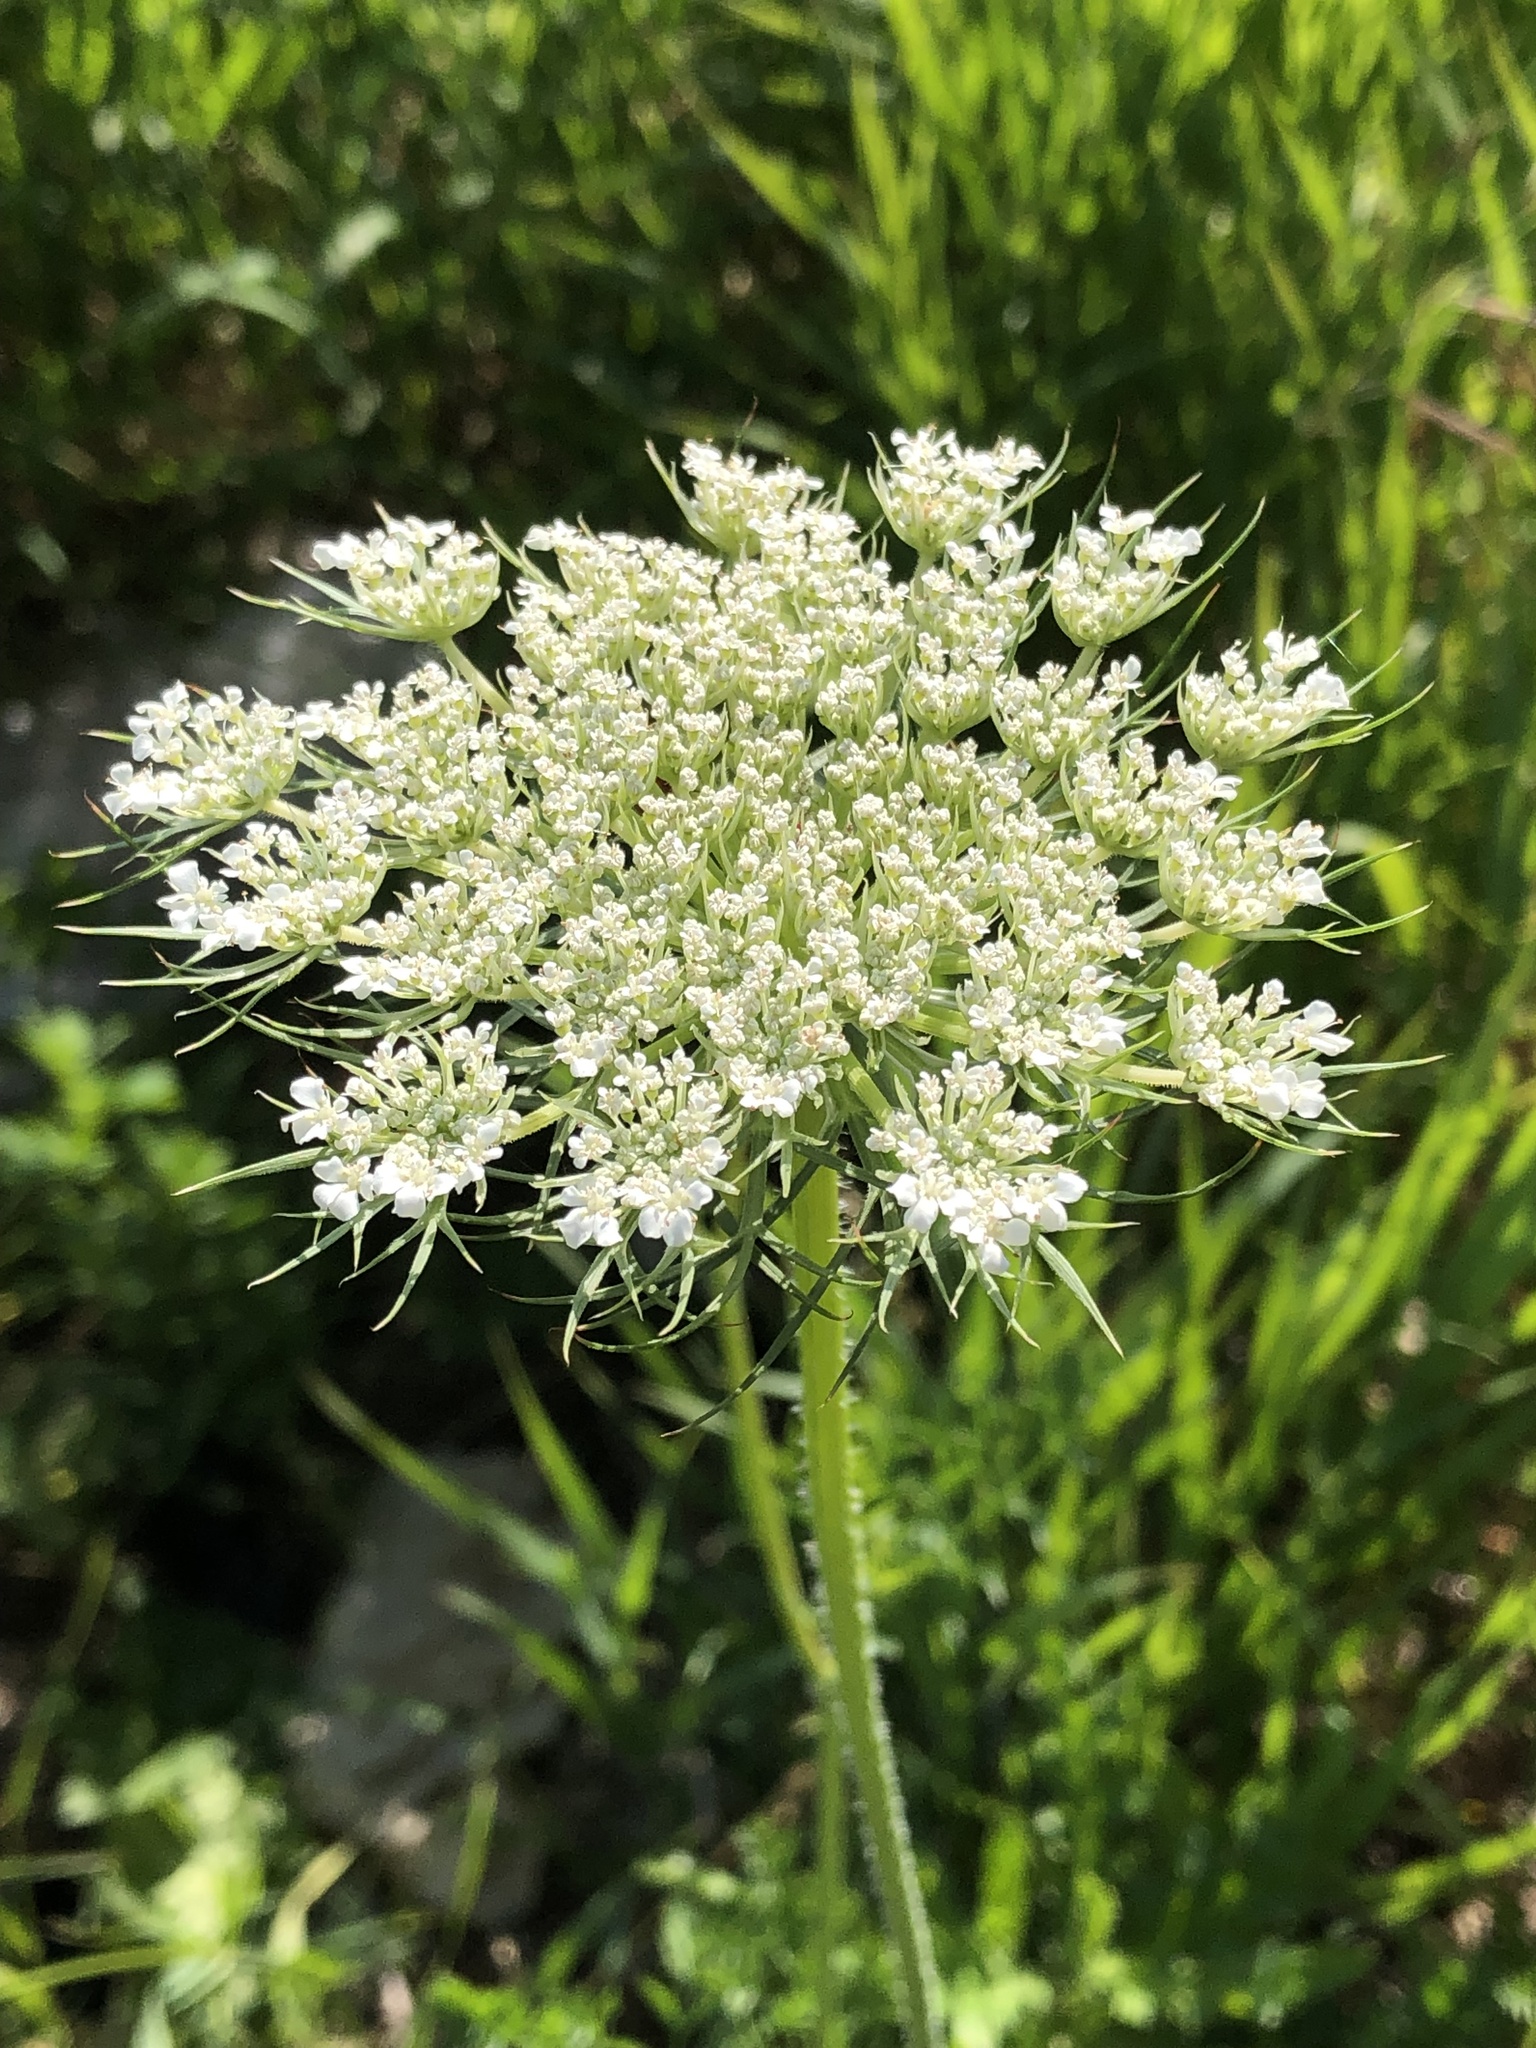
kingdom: Plantae
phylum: Tracheophyta
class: Magnoliopsida
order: Apiales
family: Apiaceae
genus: Daucus
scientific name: Daucus carota
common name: Wild carrot
